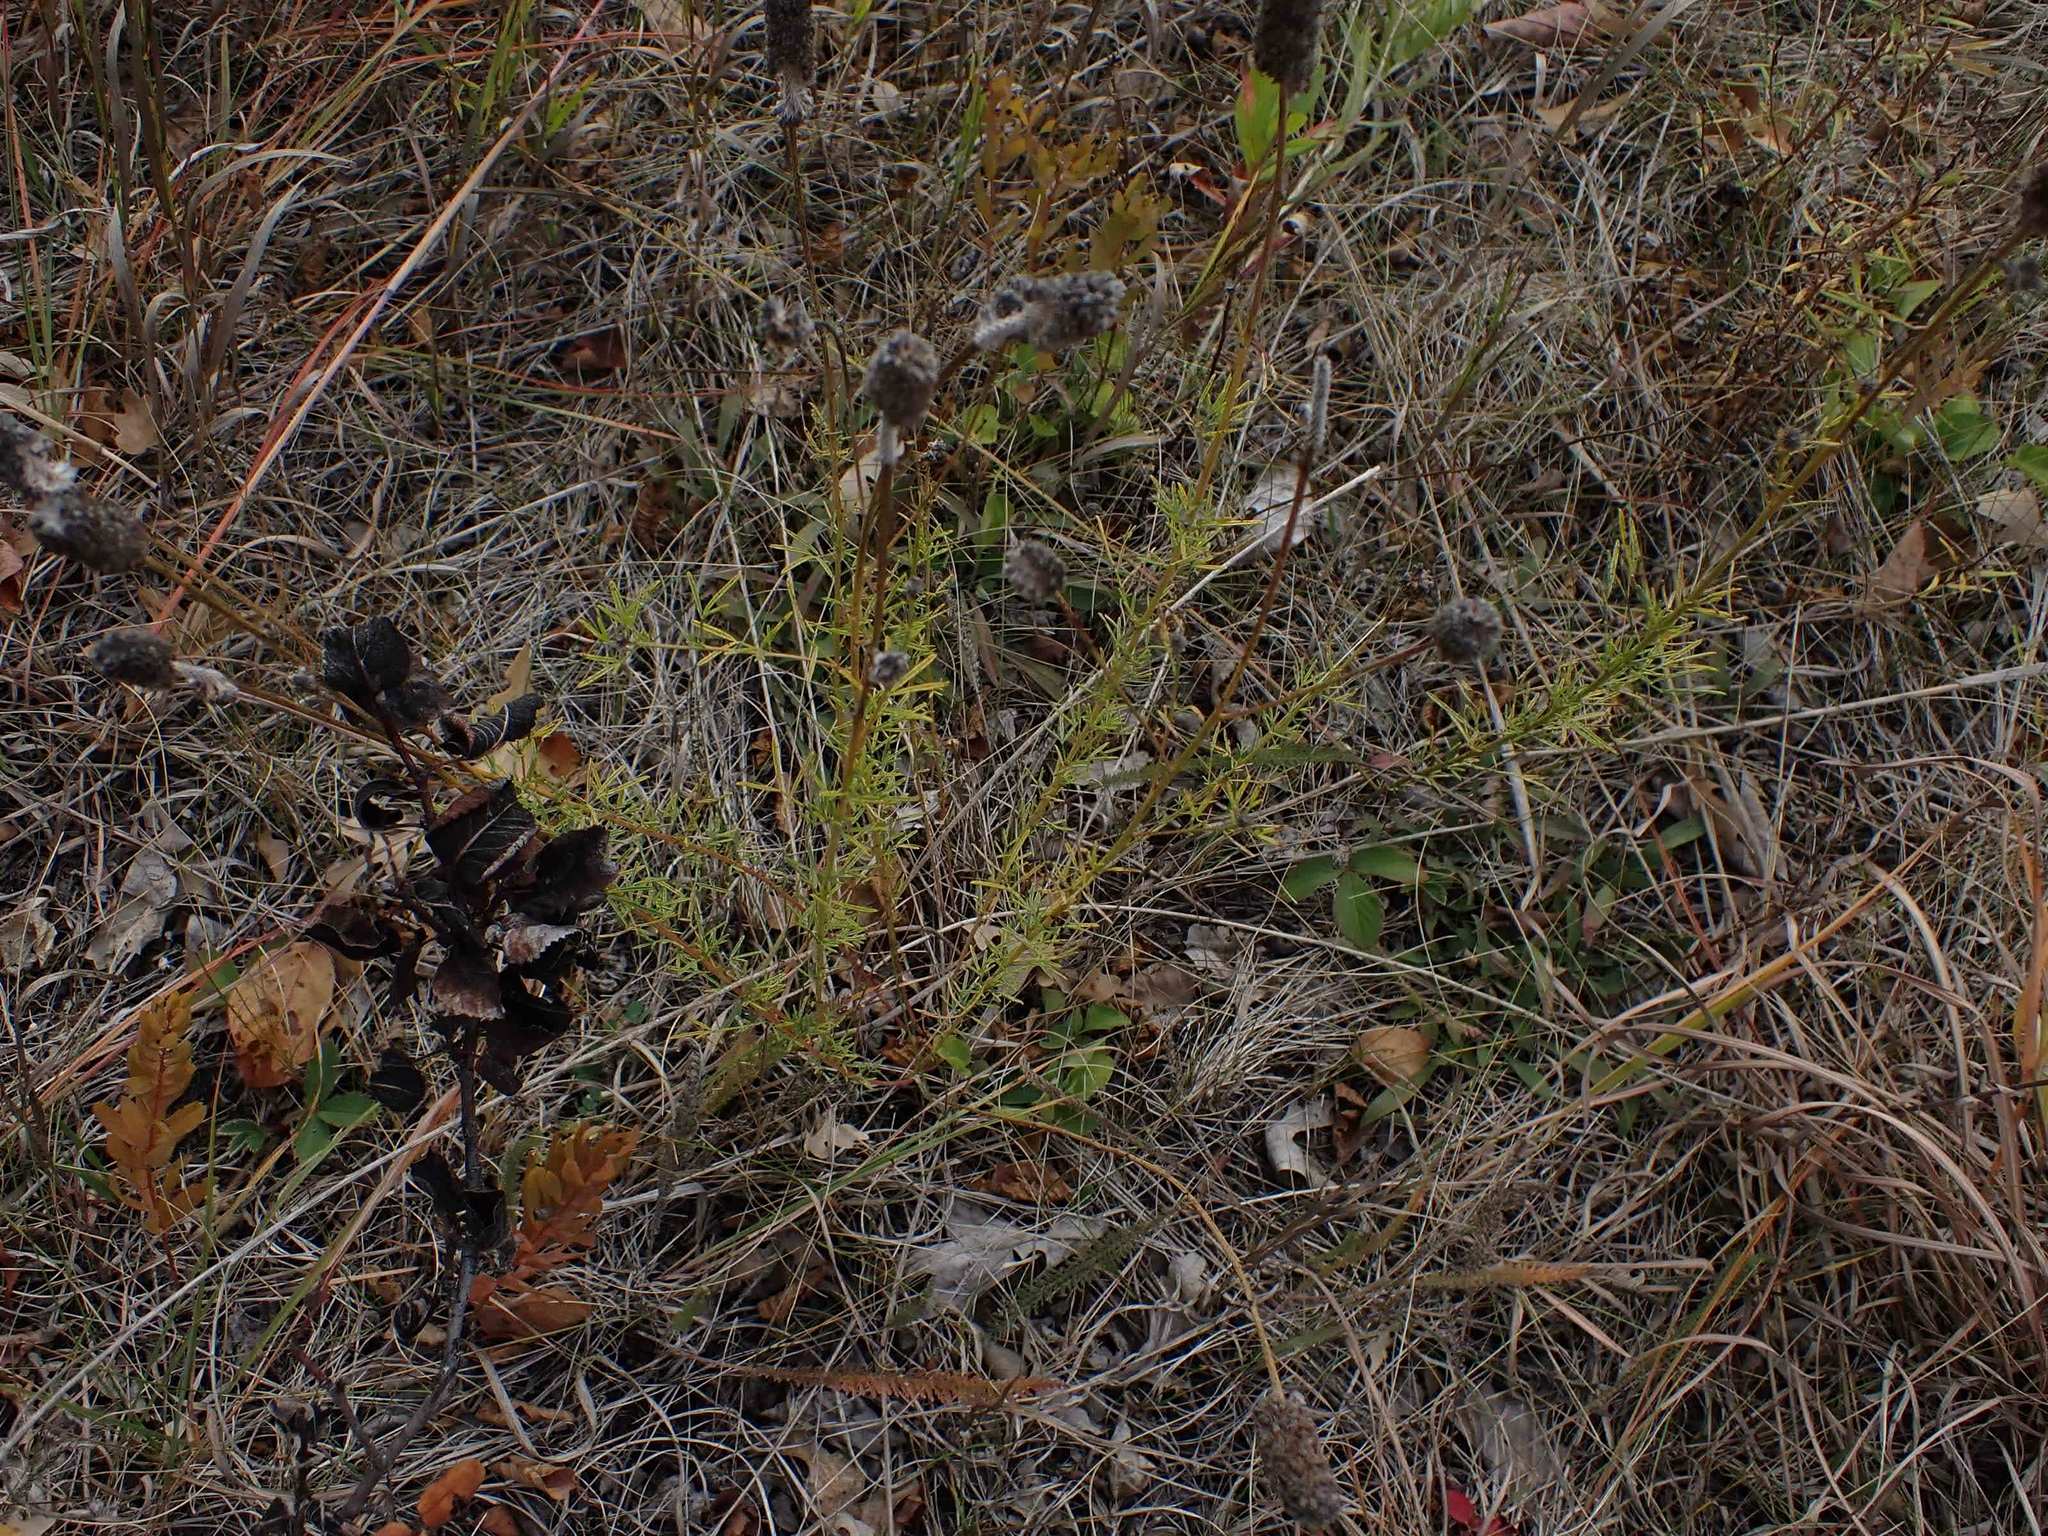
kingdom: Plantae
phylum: Tracheophyta
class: Magnoliopsida
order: Fabales
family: Fabaceae
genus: Dalea
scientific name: Dalea purpurea
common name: Purple prairie-clover
